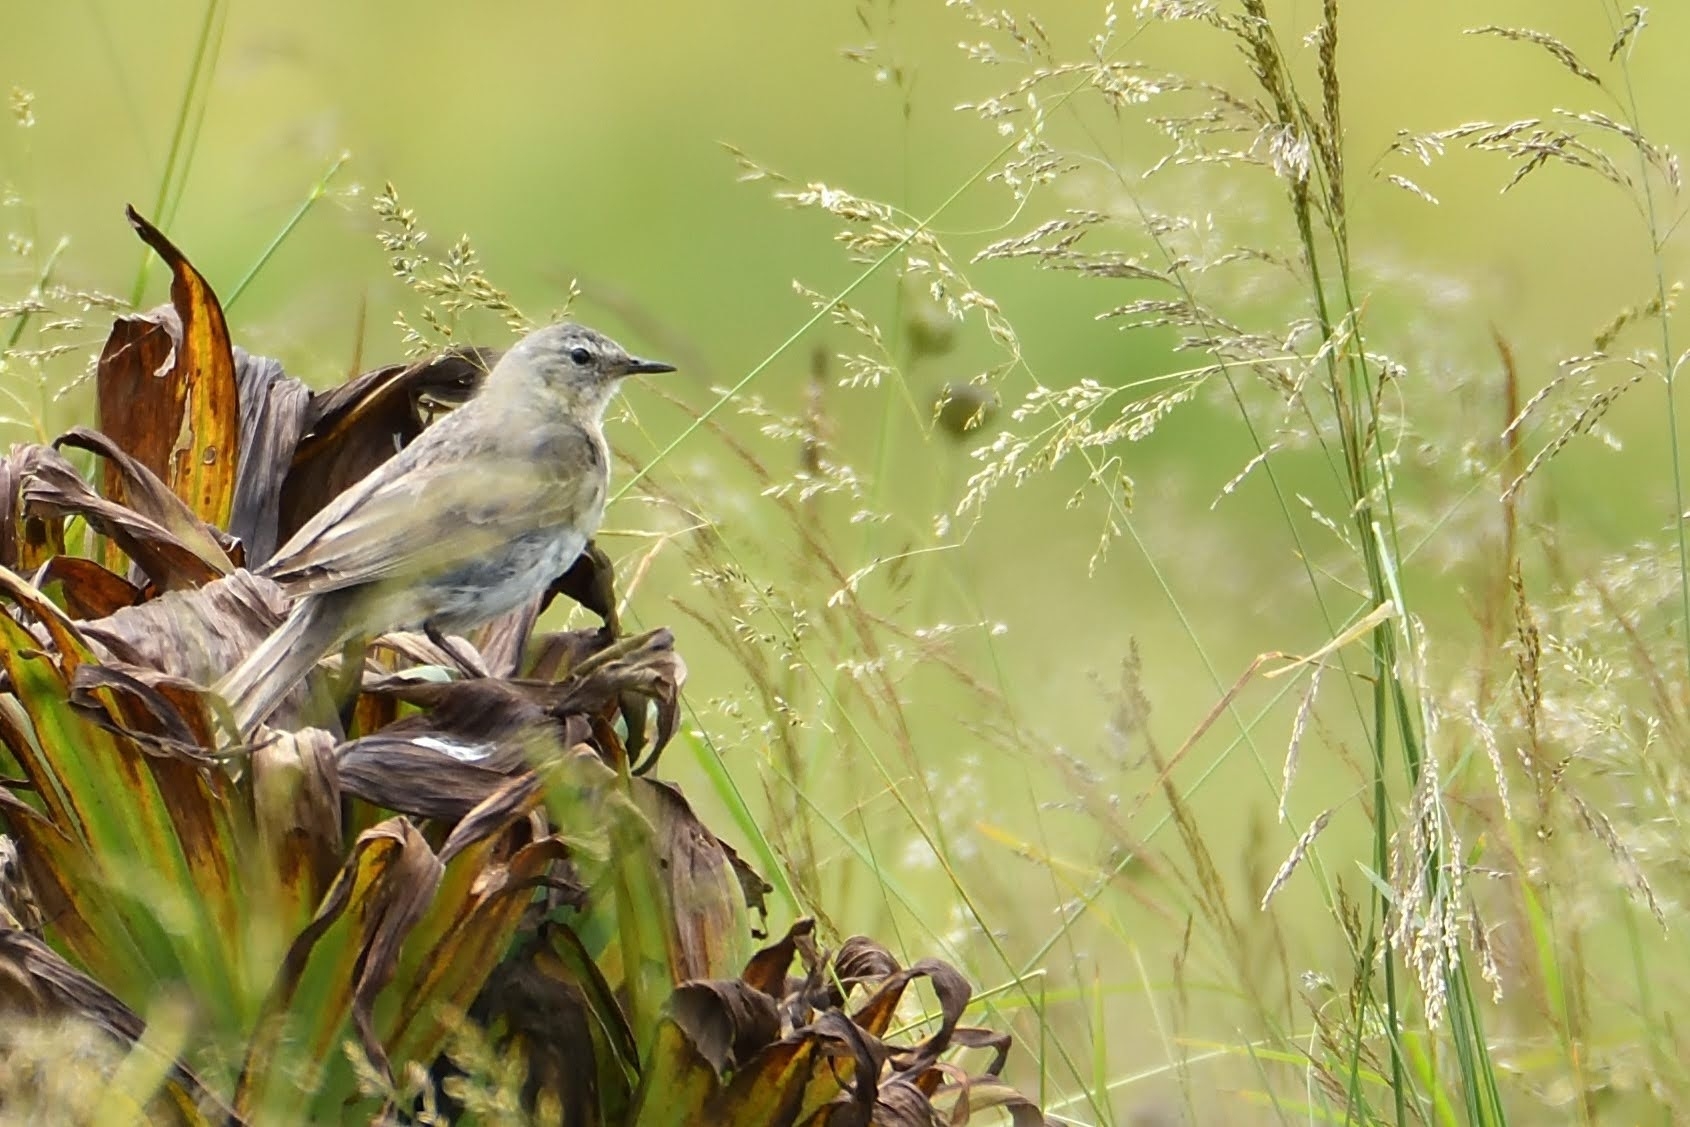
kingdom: Animalia
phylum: Chordata
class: Aves
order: Passeriformes
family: Motacillidae
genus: Anthus
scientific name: Anthus spinoletta
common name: Water pipit
